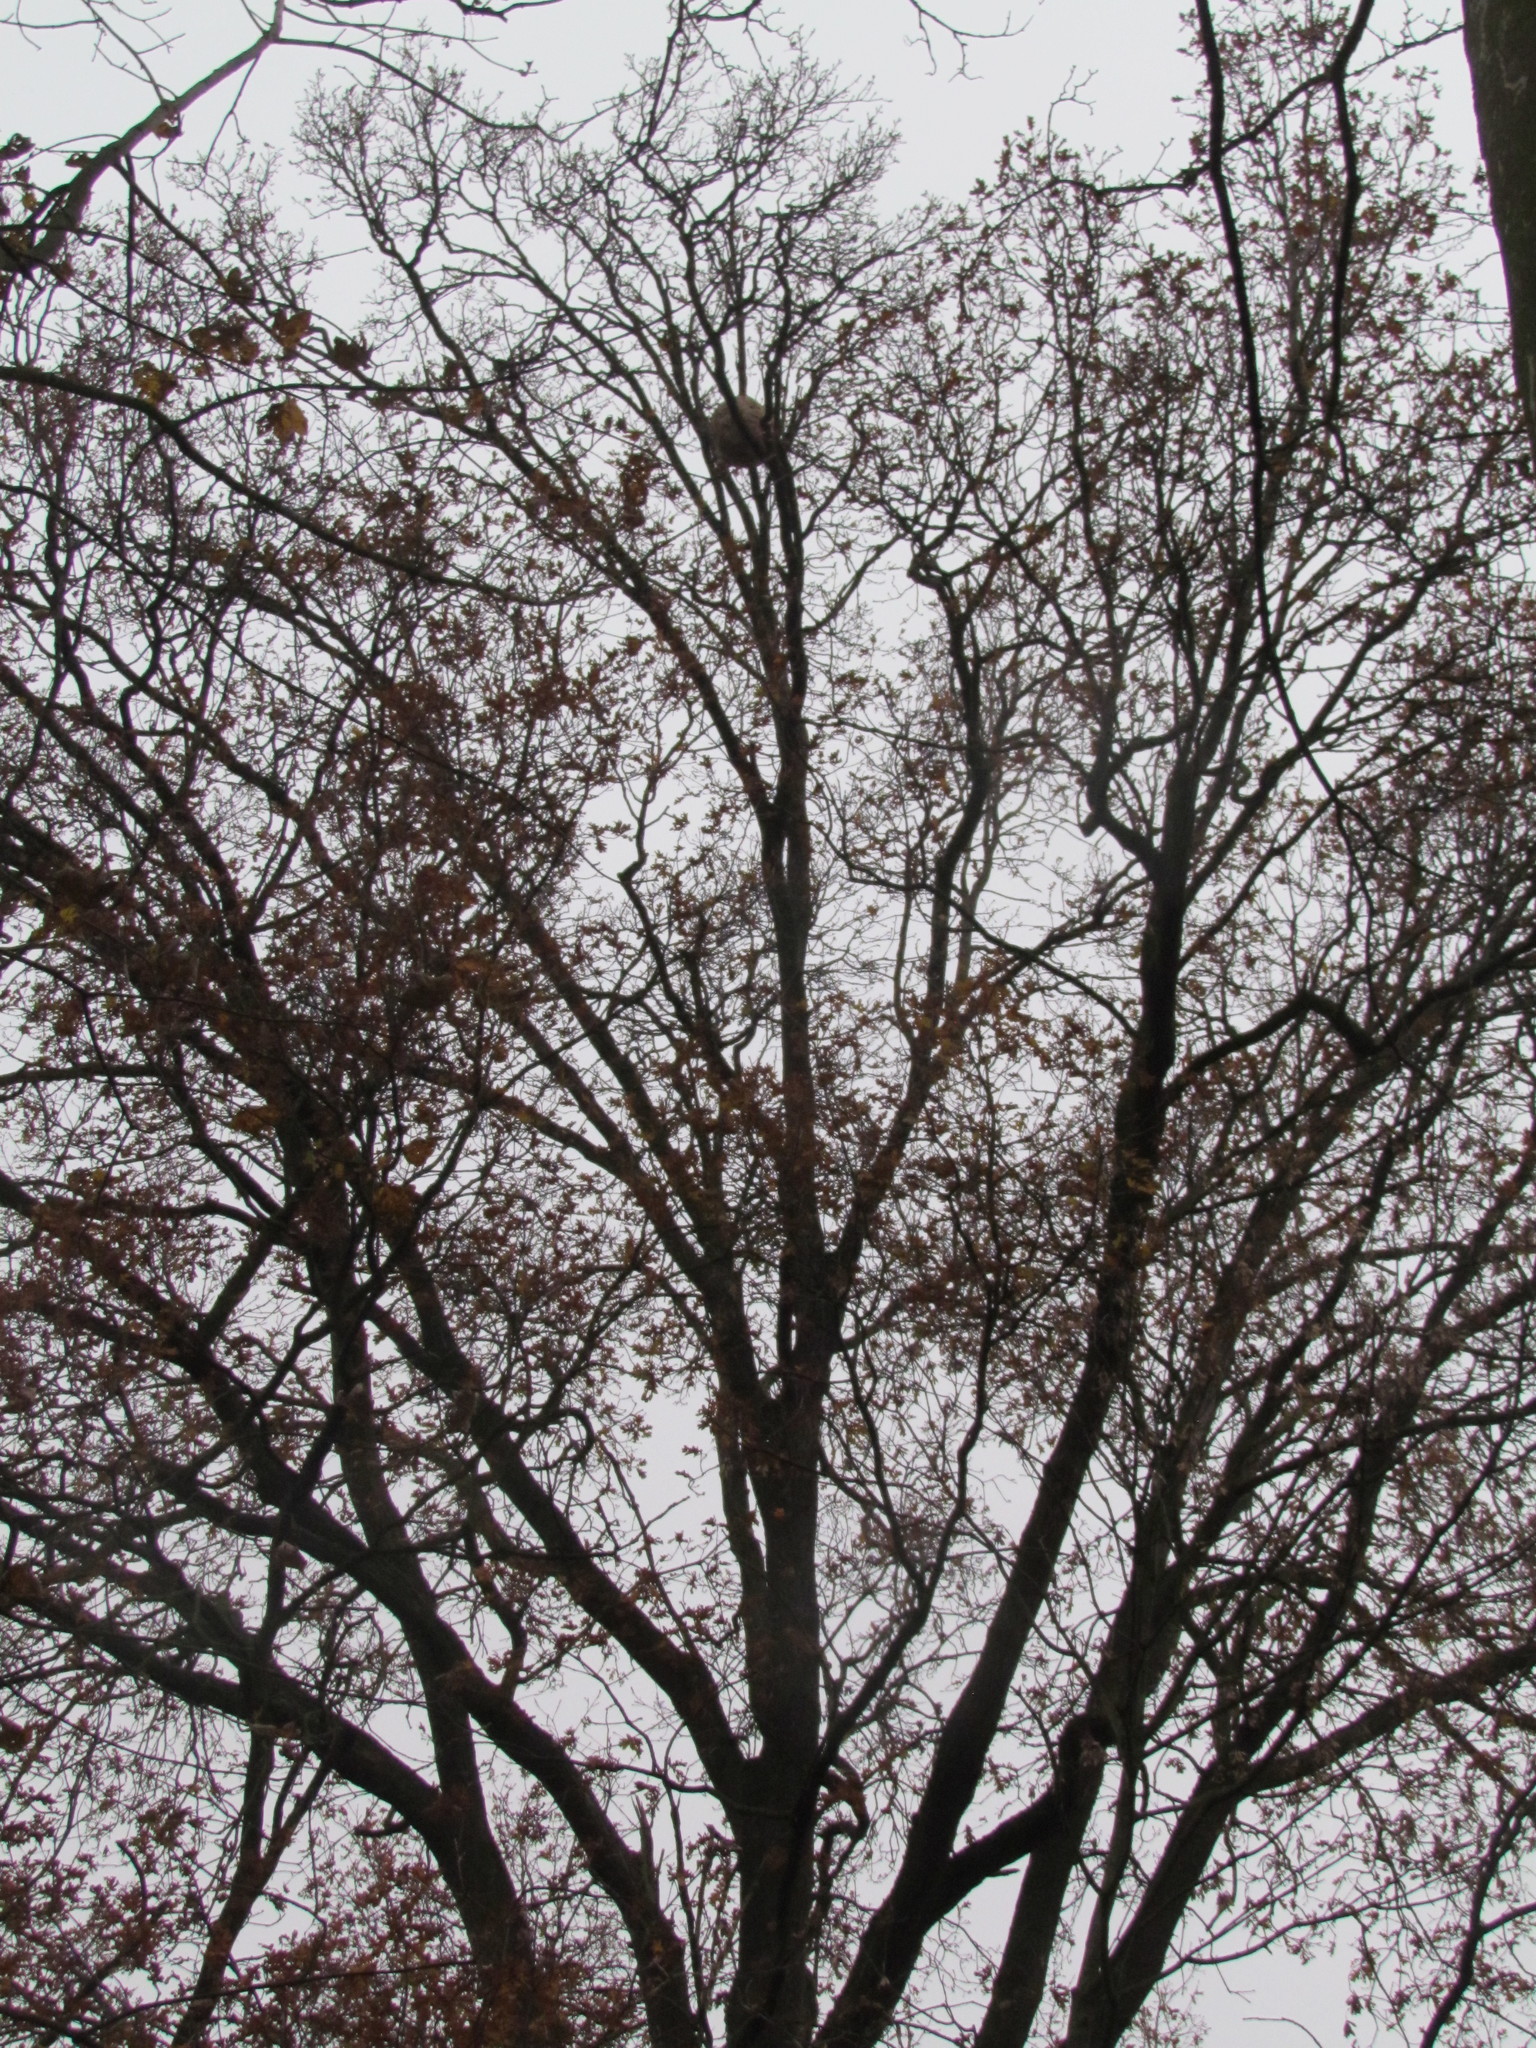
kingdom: Animalia
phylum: Arthropoda
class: Insecta
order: Hymenoptera
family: Vespidae
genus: Vespa
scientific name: Vespa velutina
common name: Asian hornet
